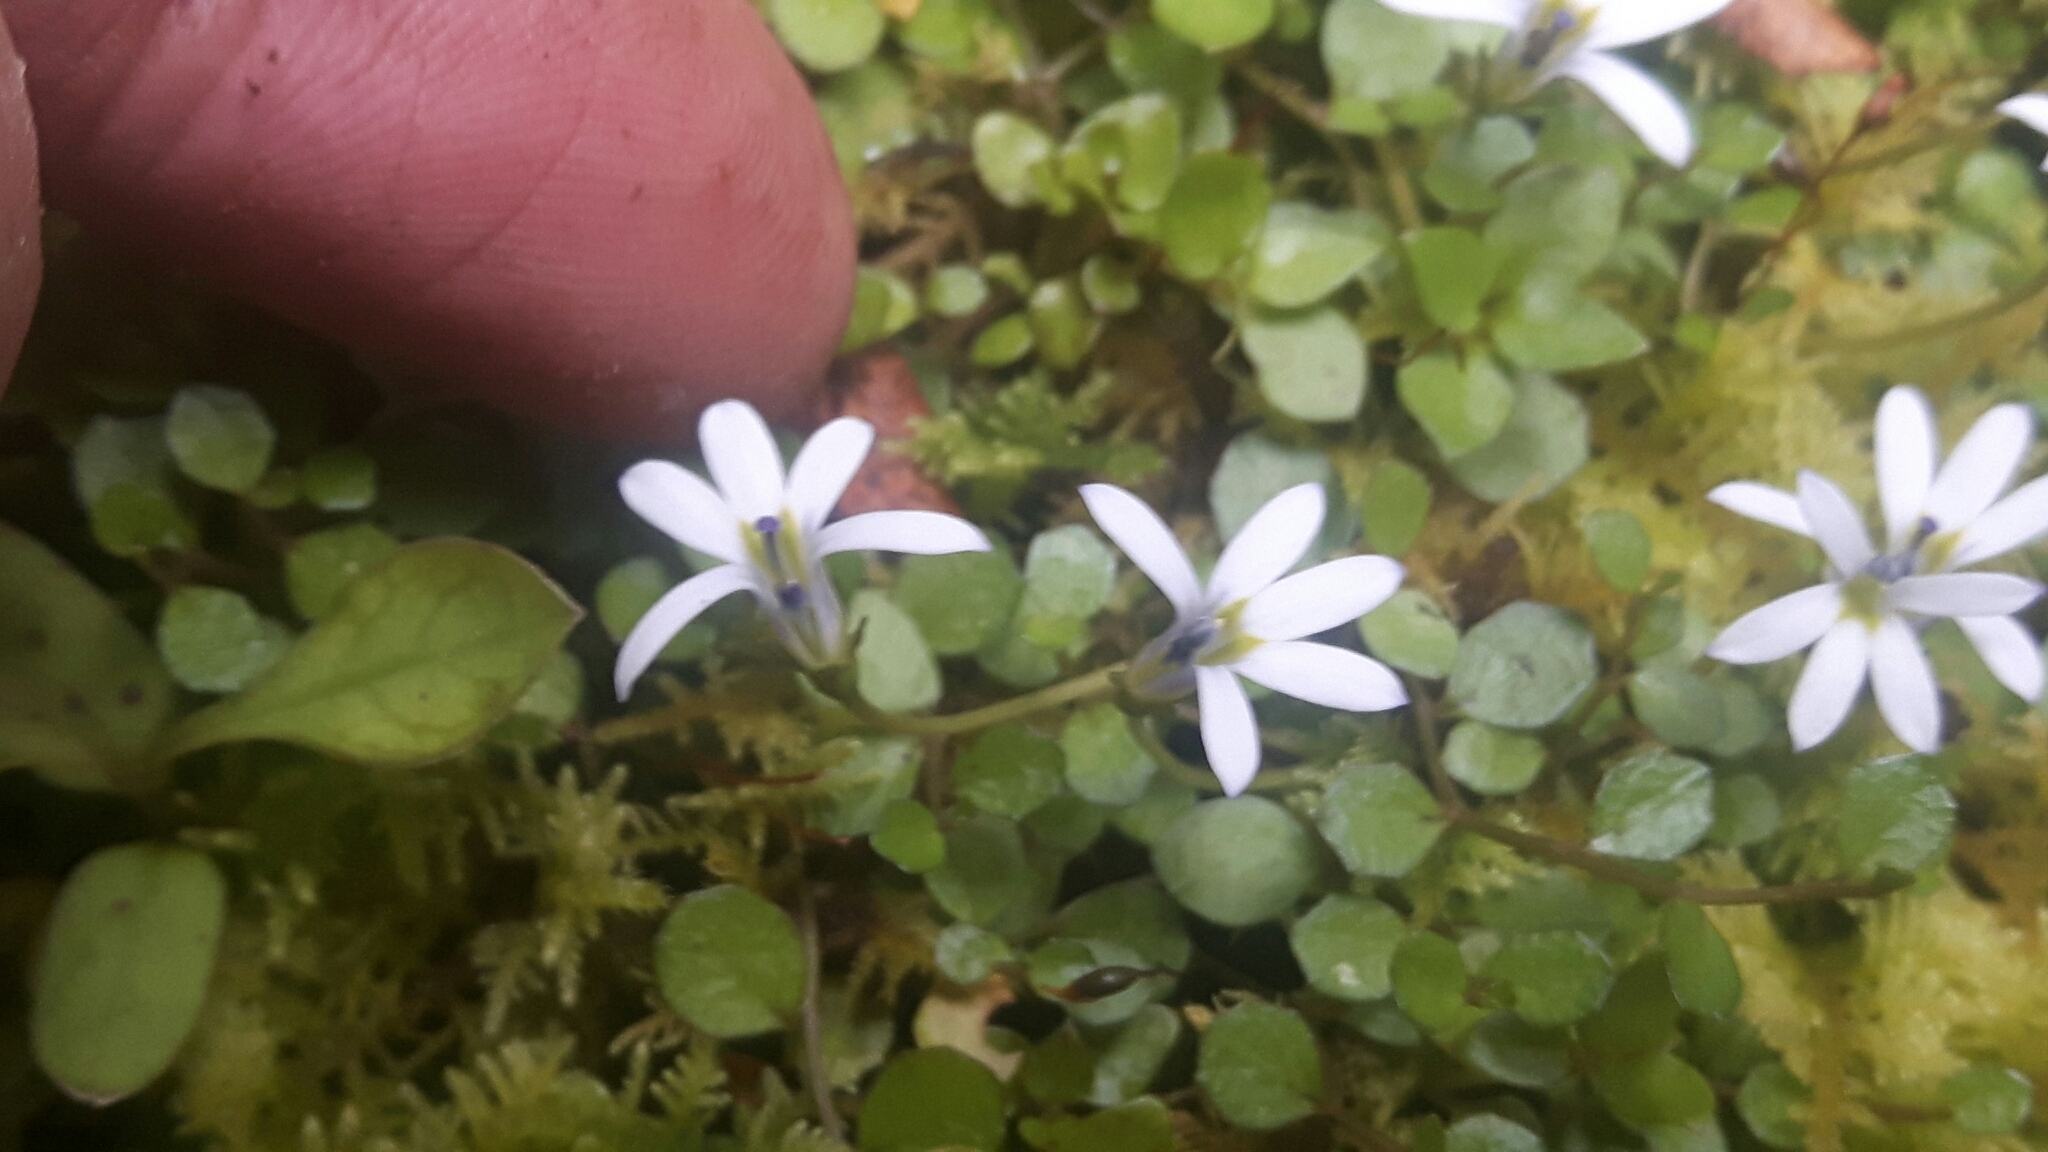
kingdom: Plantae
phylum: Tracheophyta
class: Magnoliopsida
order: Asterales
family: Campanulaceae
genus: Lobelia
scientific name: Lobelia angulata
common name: Lawn lobelia
